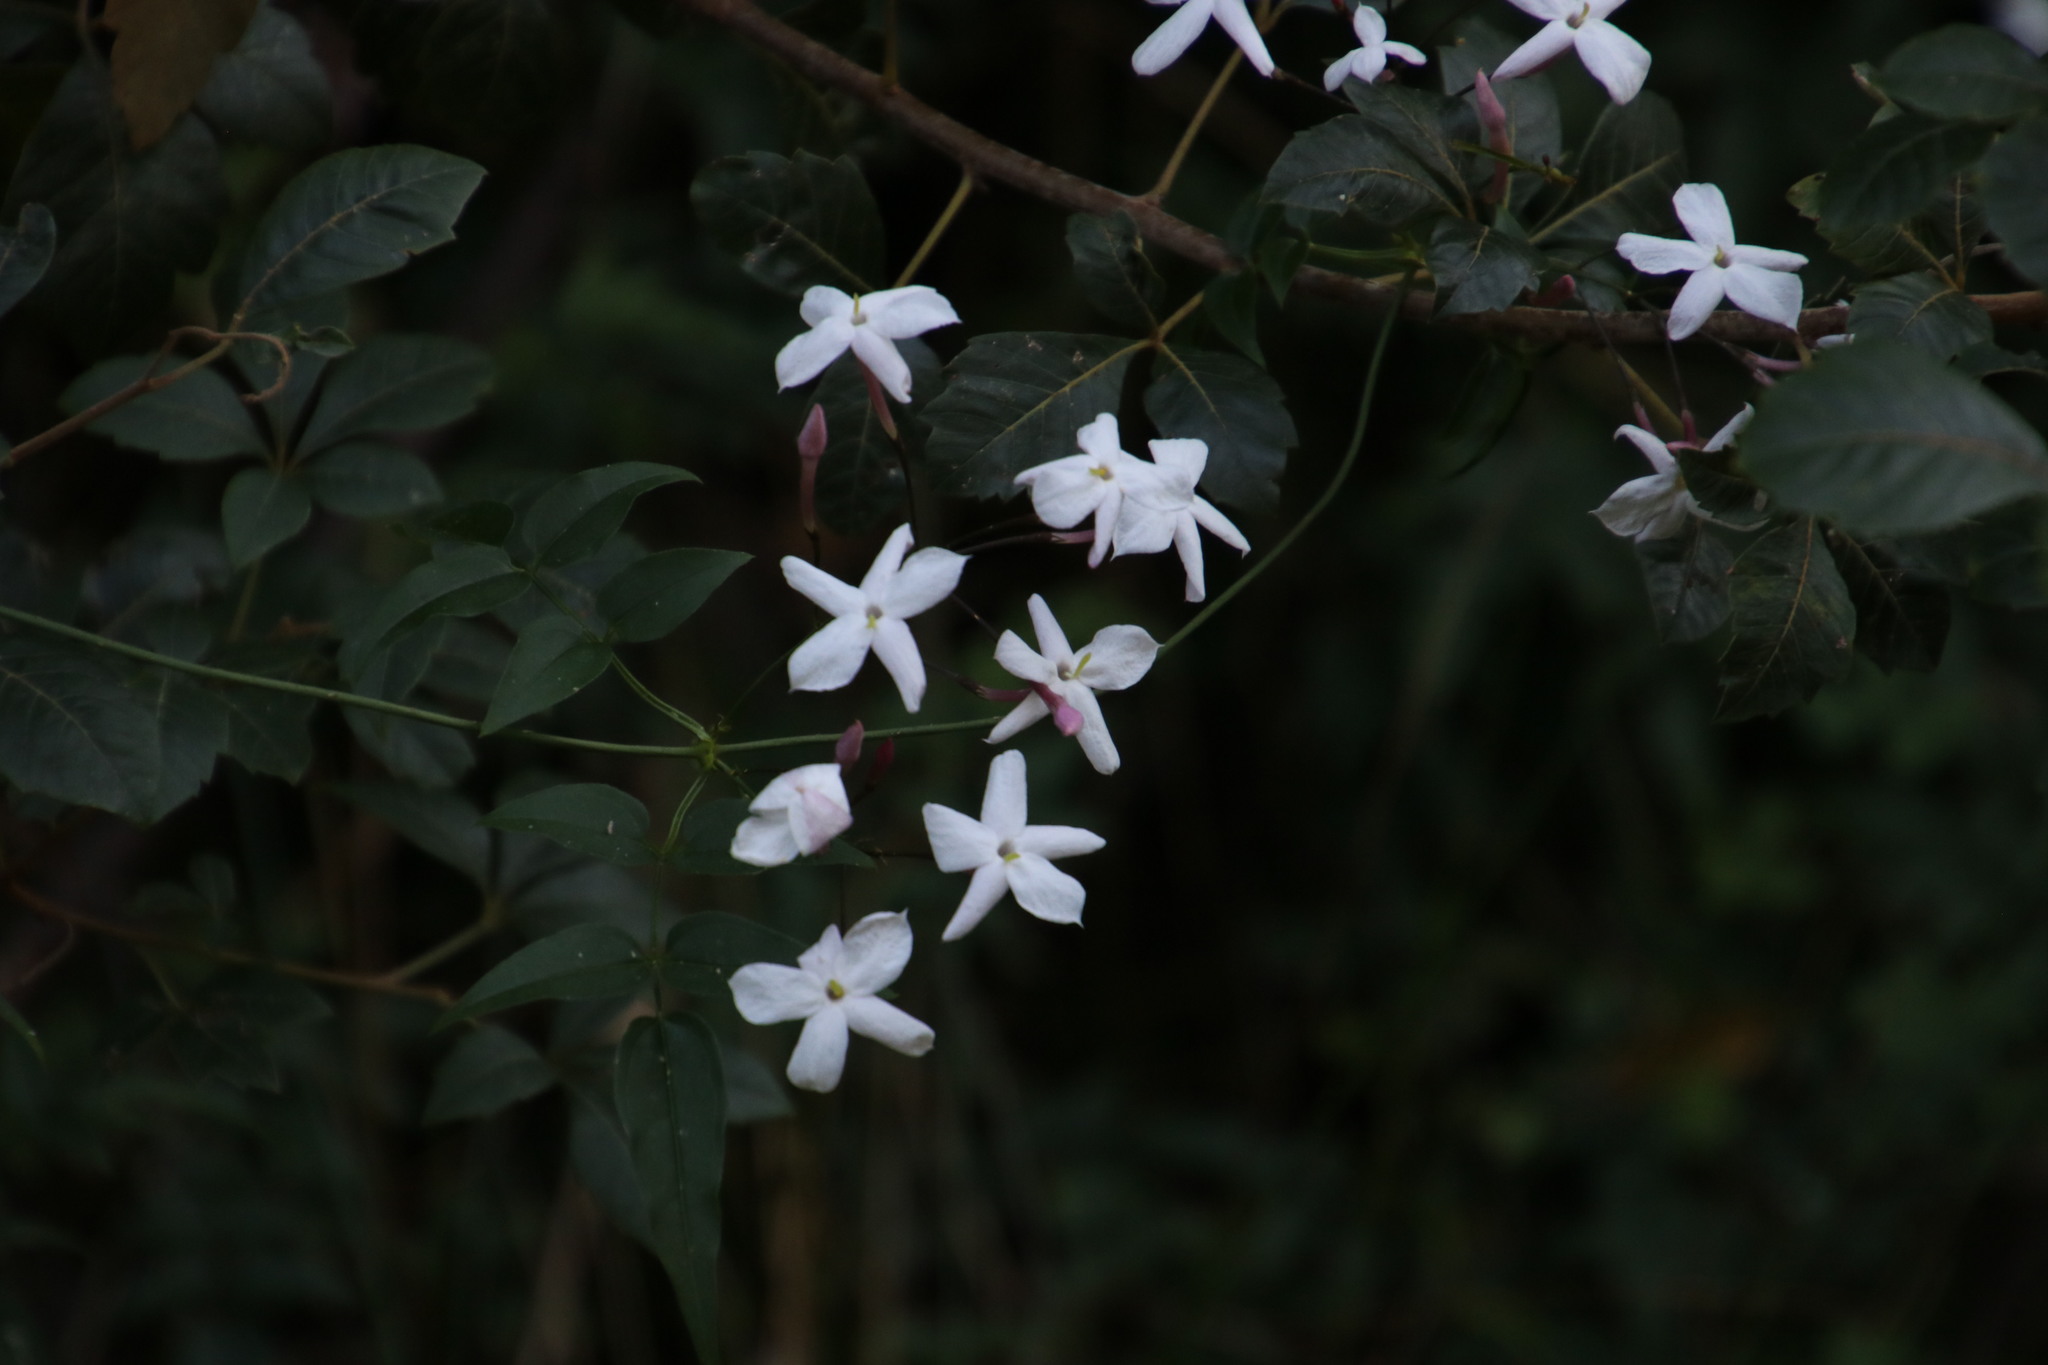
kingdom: Plantae
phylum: Tracheophyta
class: Magnoliopsida
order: Lamiales
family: Oleaceae
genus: Jasminum
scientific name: Jasminum polyanthum
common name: Pink jasmine
